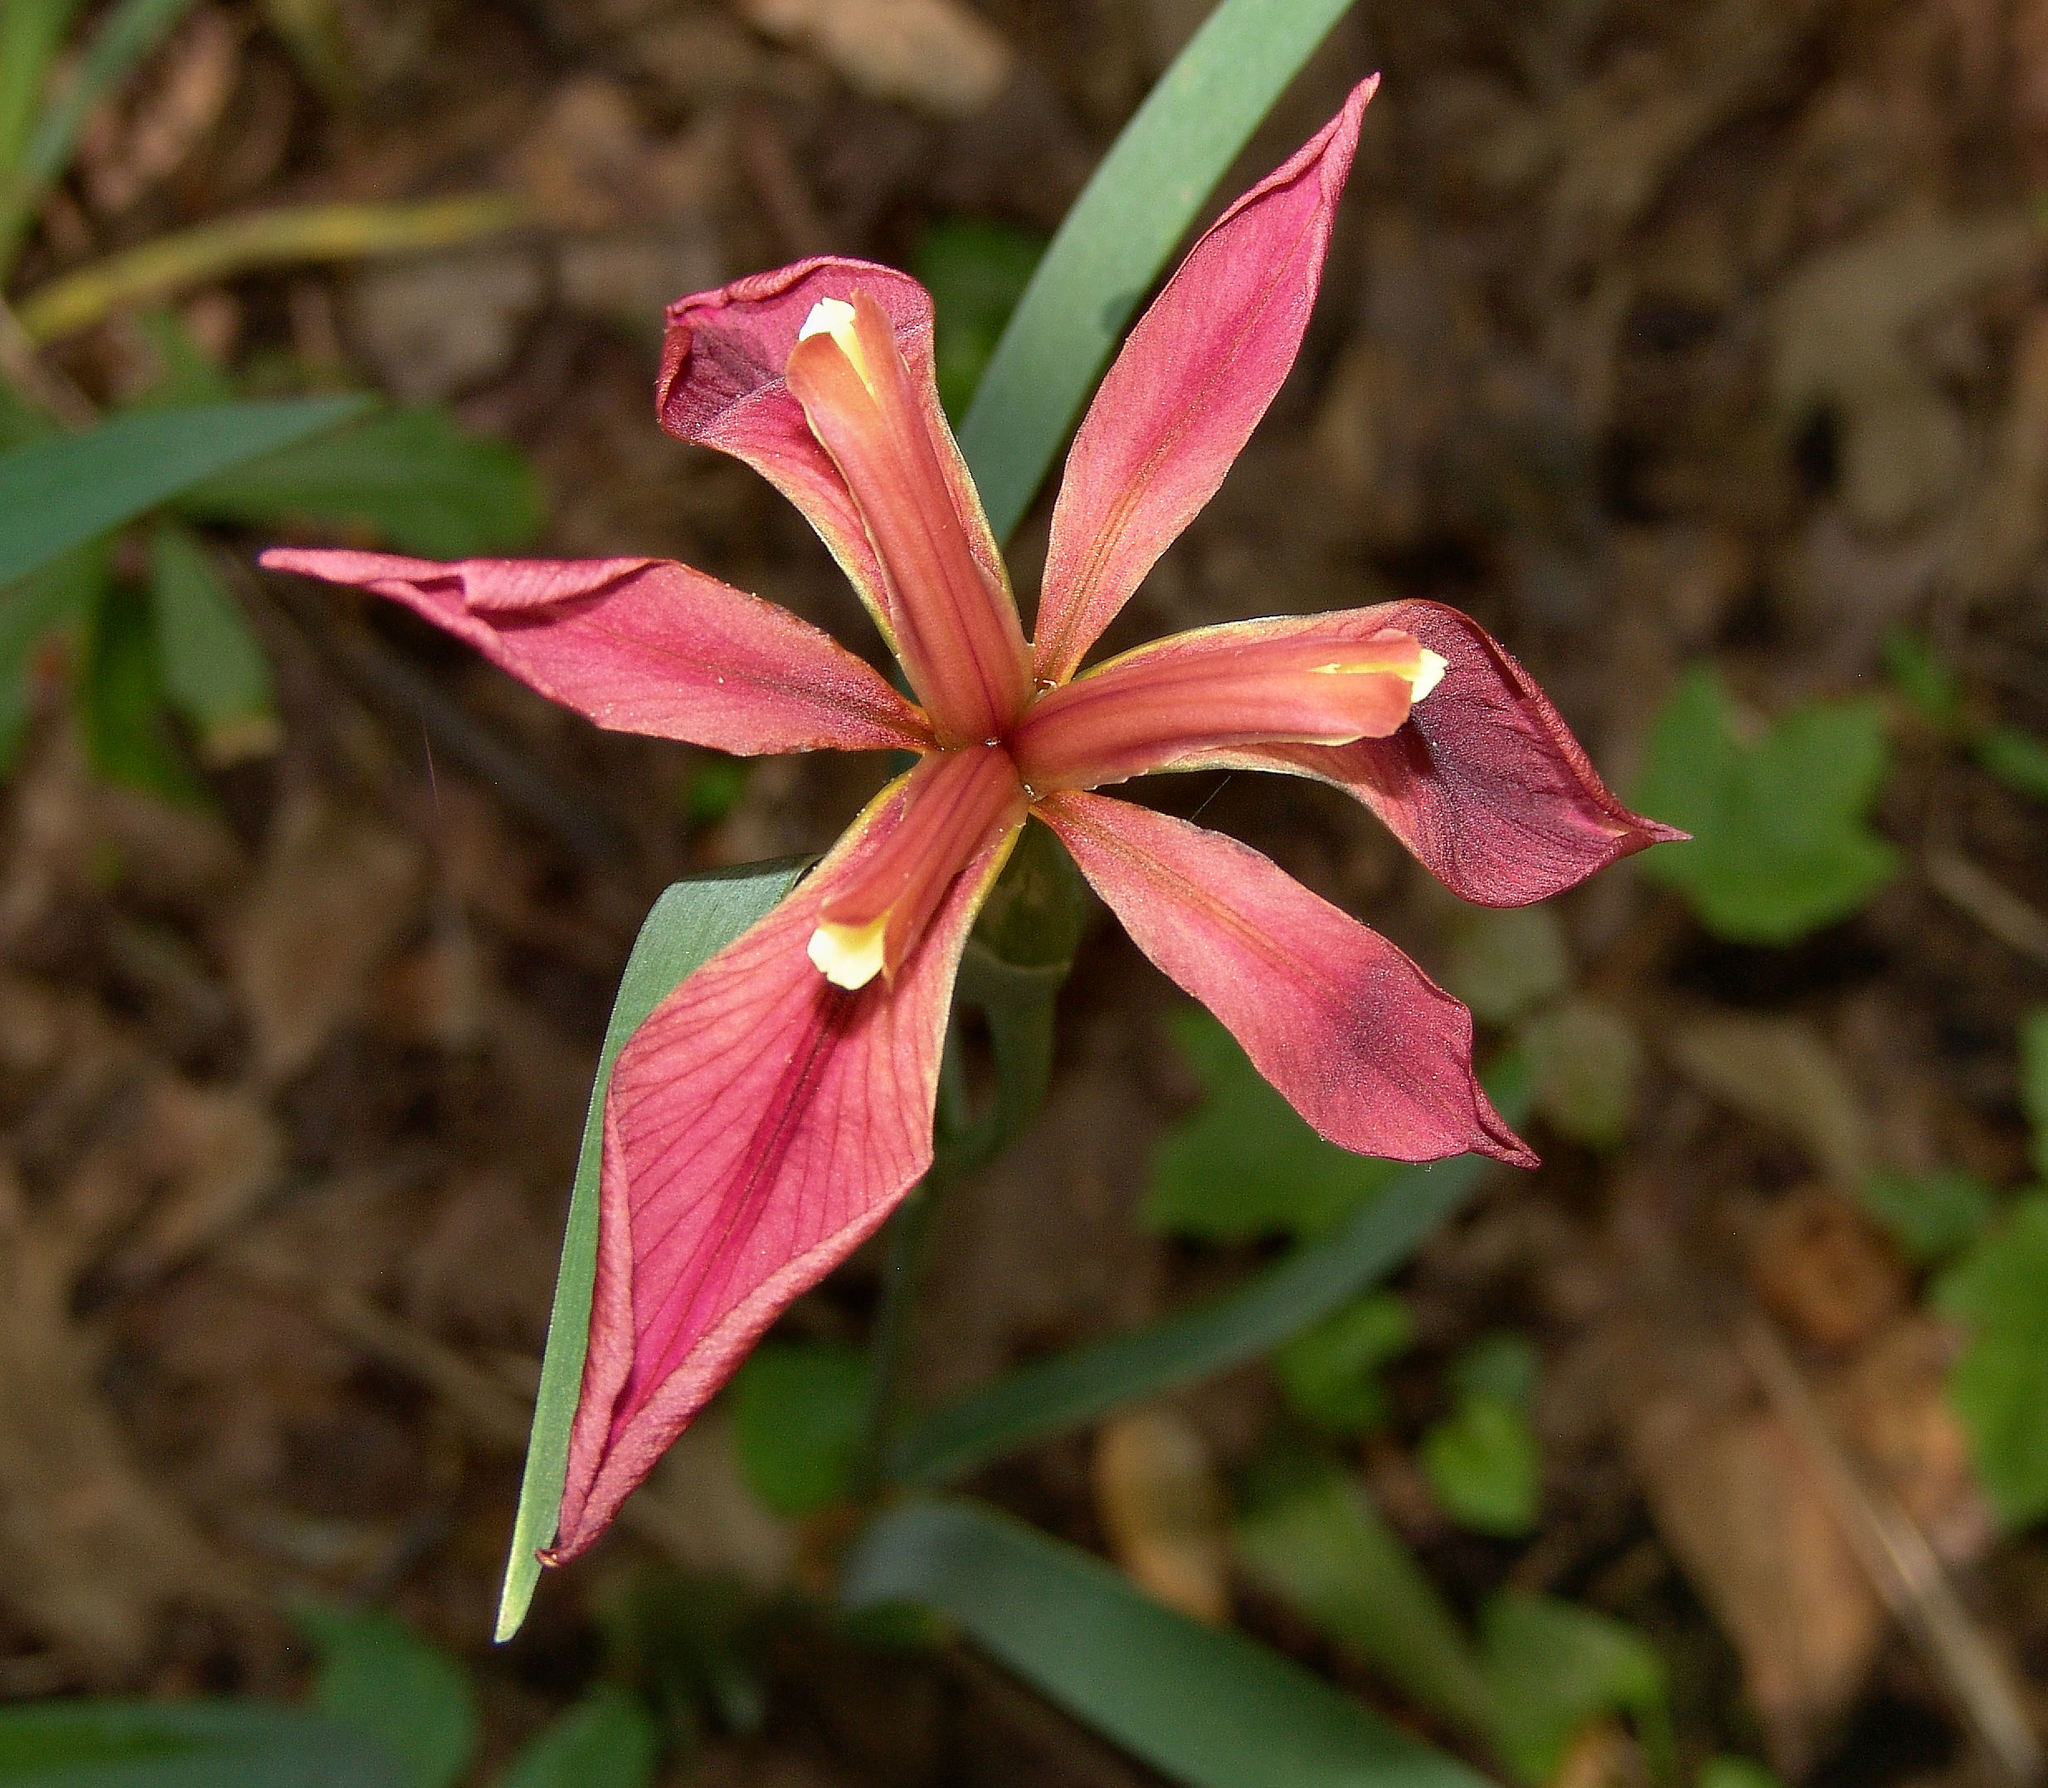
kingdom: Plantae
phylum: Tracheophyta
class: Liliopsida
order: Asparagales
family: Iridaceae
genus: Iris
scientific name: Iris fulva
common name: Copper iris
